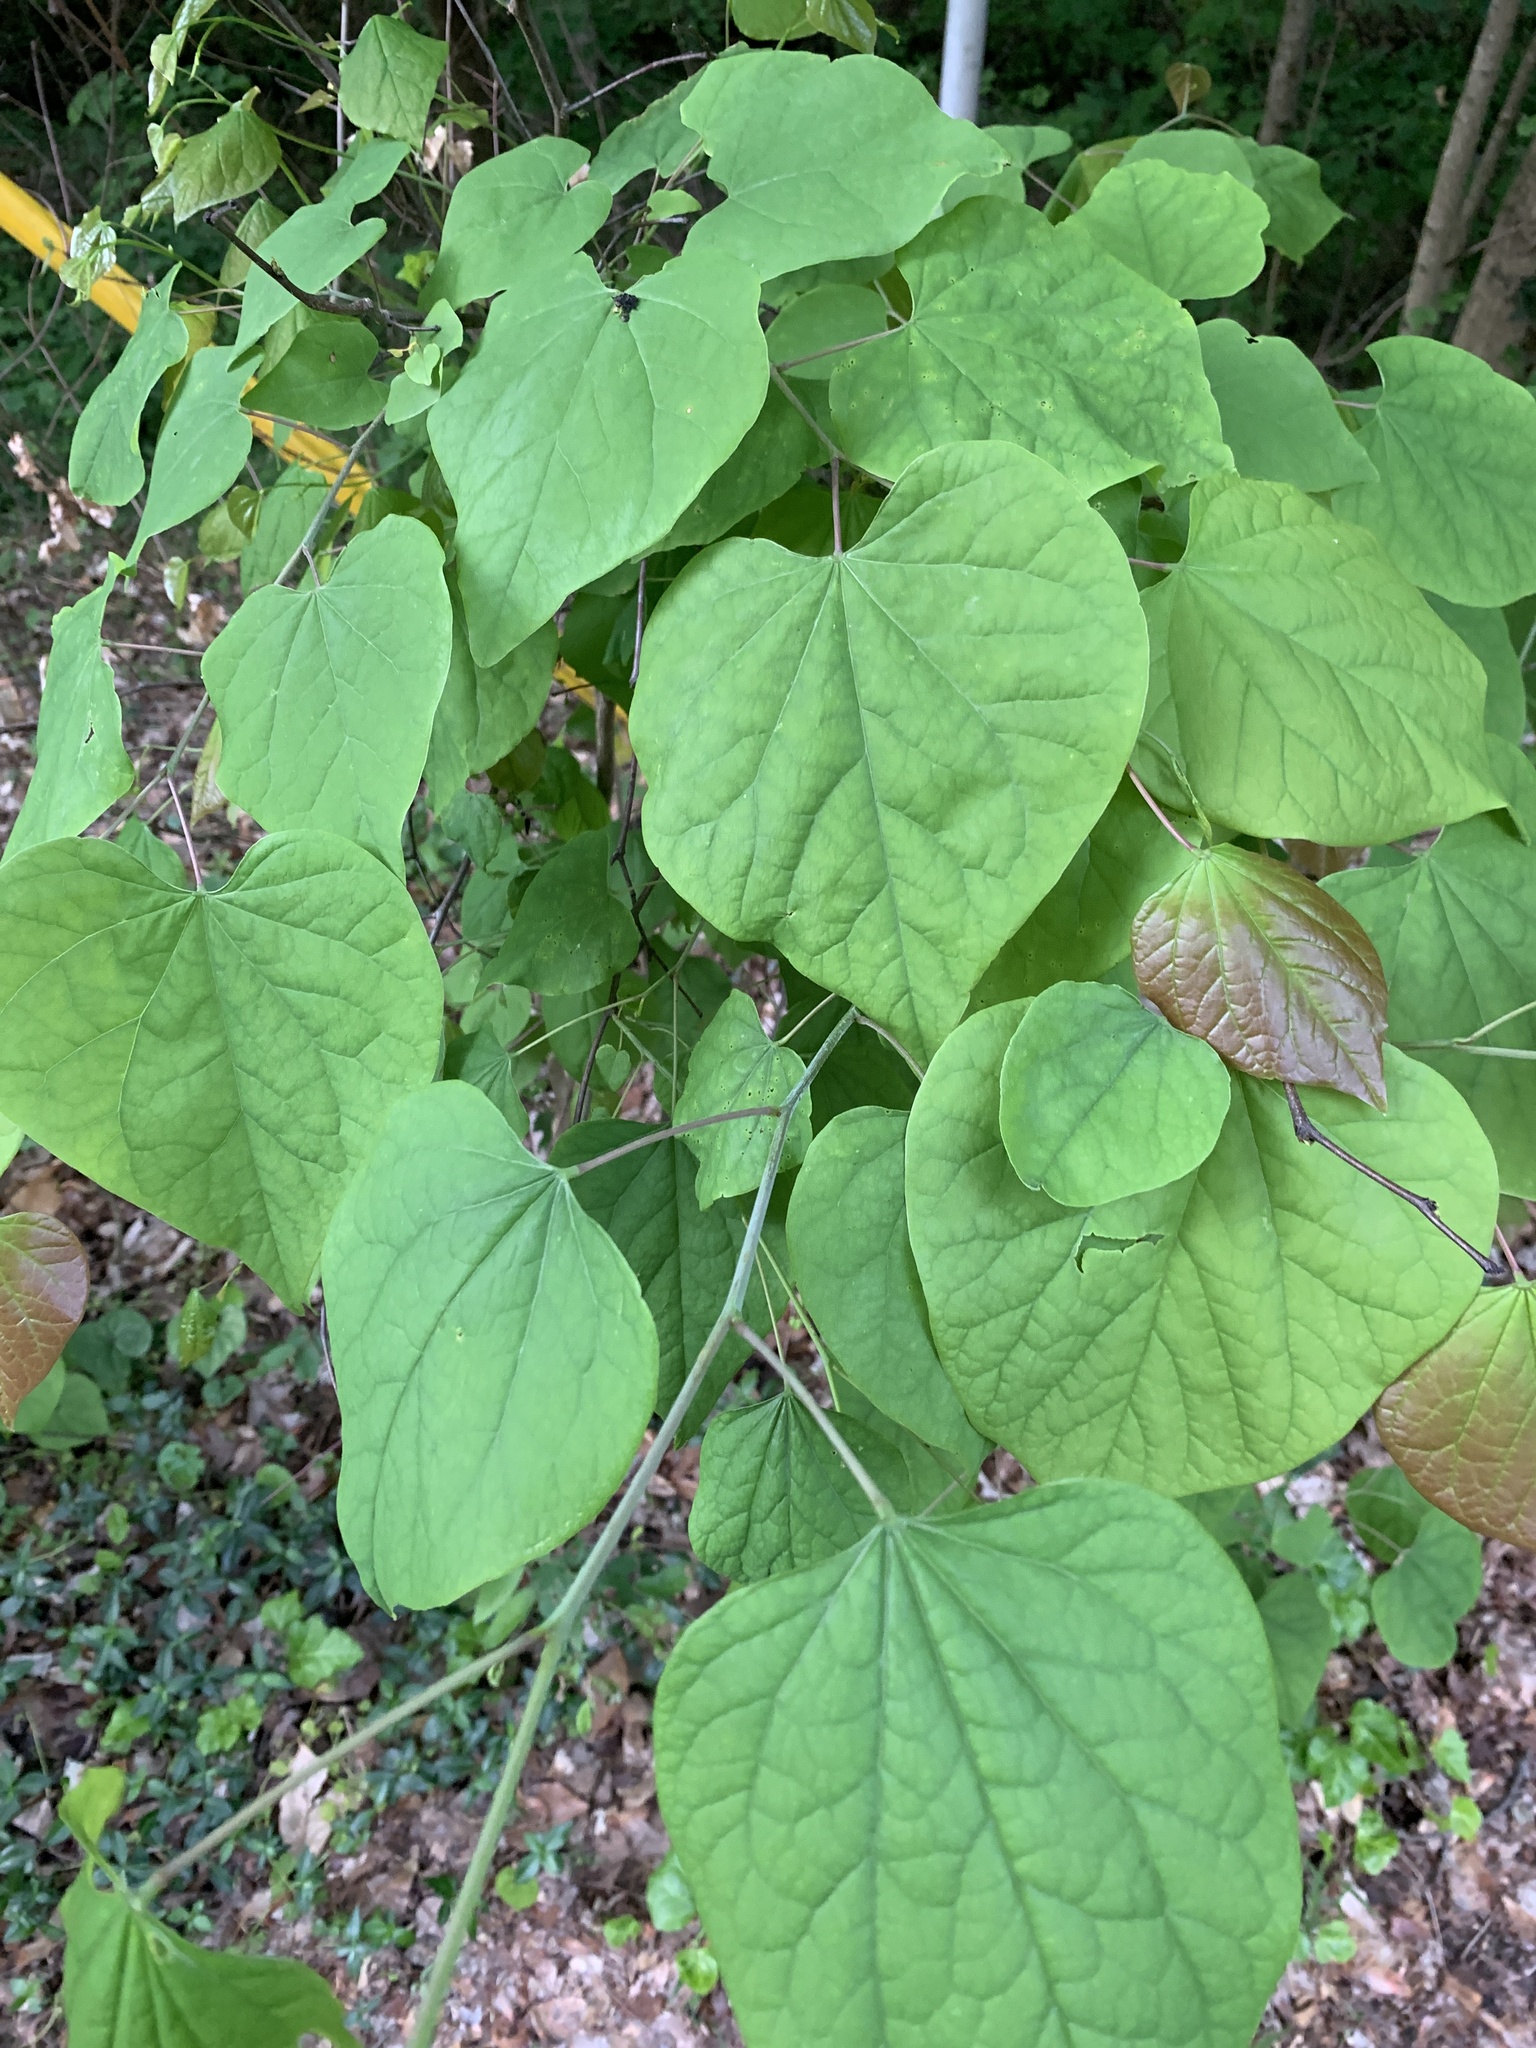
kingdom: Plantae
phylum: Tracheophyta
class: Magnoliopsida
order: Fabales
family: Fabaceae
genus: Cercis
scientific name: Cercis canadensis
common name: Eastern redbud
